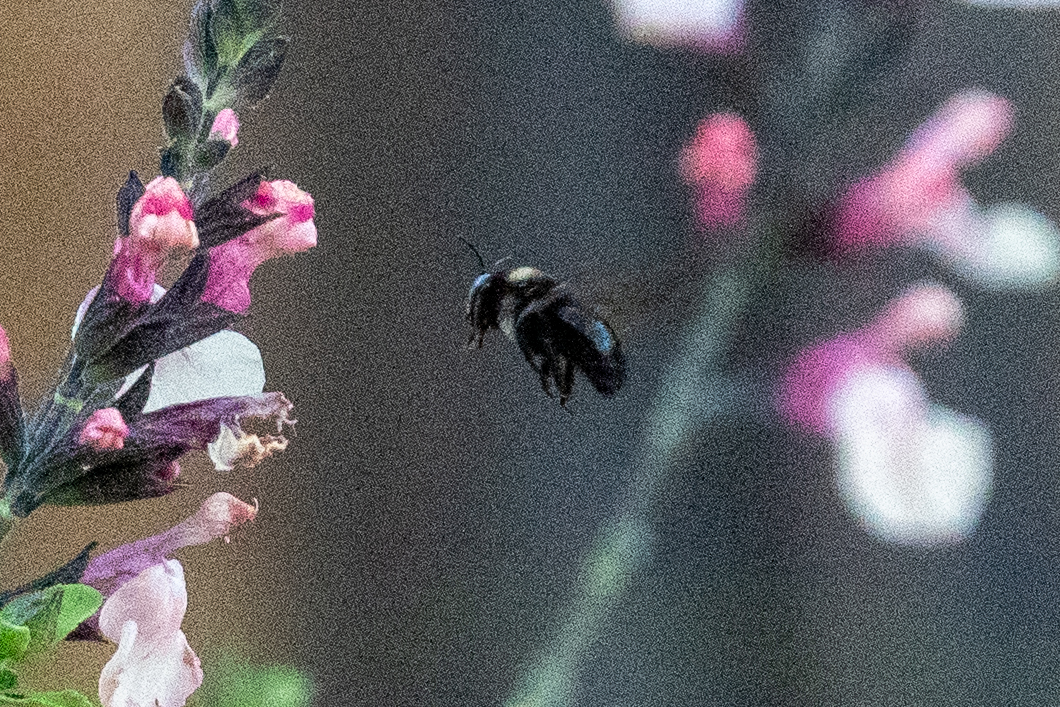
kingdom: Animalia
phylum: Arthropoda
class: Insecta
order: Hymenoptera
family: Apidae
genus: Xylocopa
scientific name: Xylocopa tabaniformis
